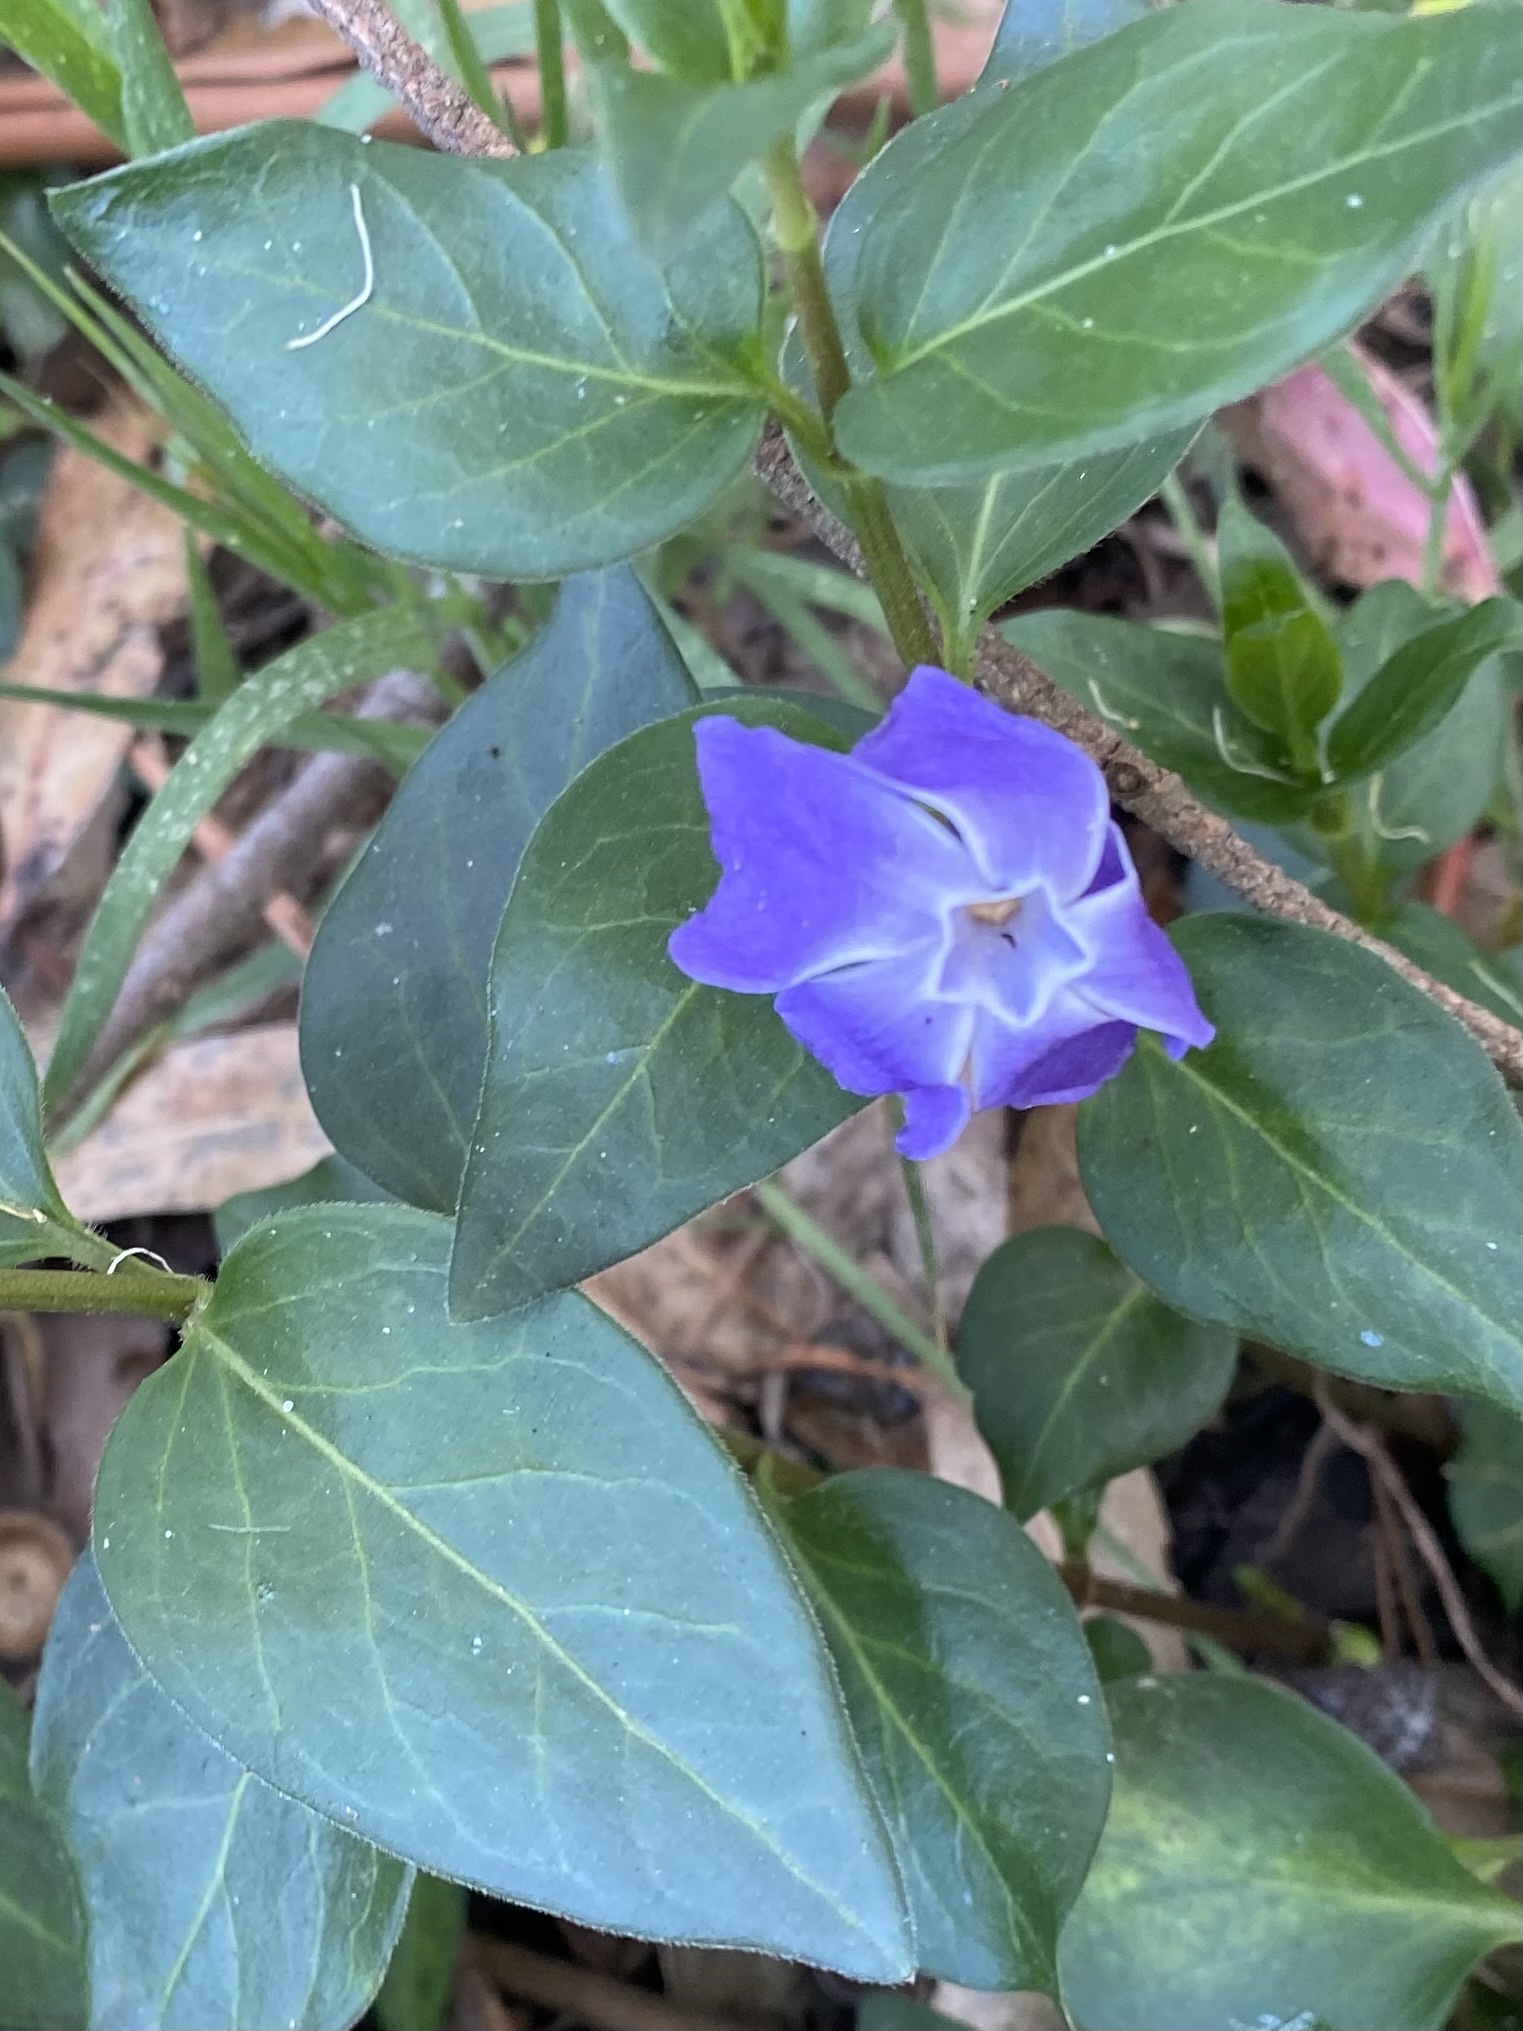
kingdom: Plantae
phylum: Tracheophyta
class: Magnoliopsida
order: Gentianales
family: Apocynaceae
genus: Vinca
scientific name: Vinca major
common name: Greater periwinkle
